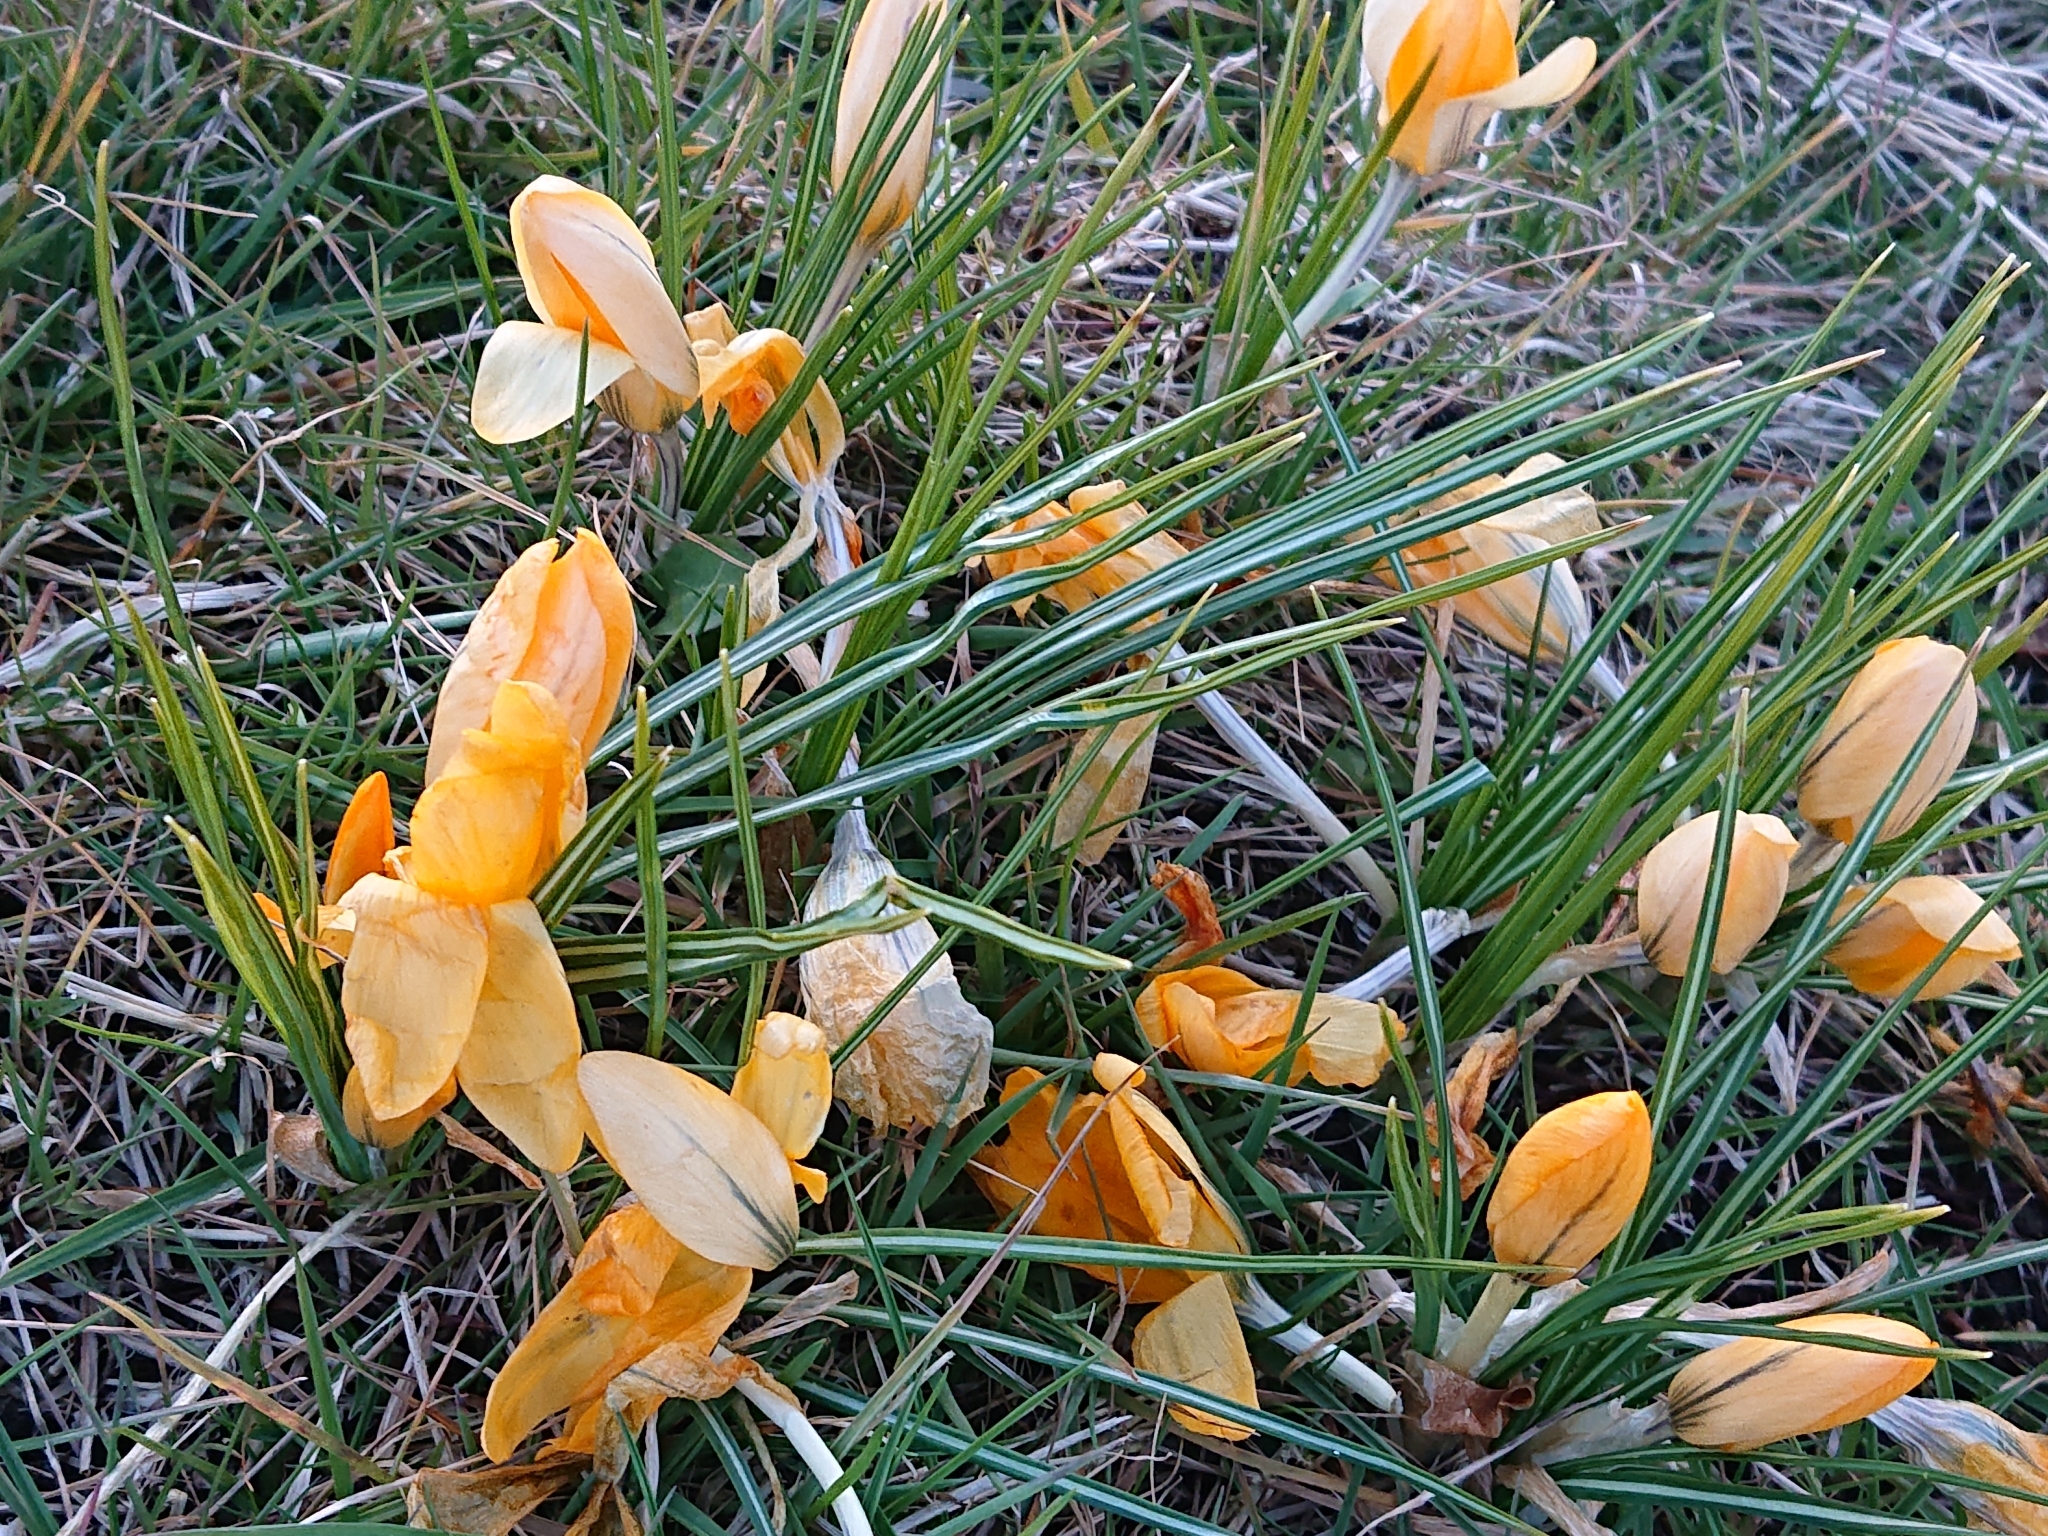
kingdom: Plantae
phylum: Tracheophyta
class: Liliopsida
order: Asparagales
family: Iridaceae
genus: Crocus
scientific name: Crocus luteus
